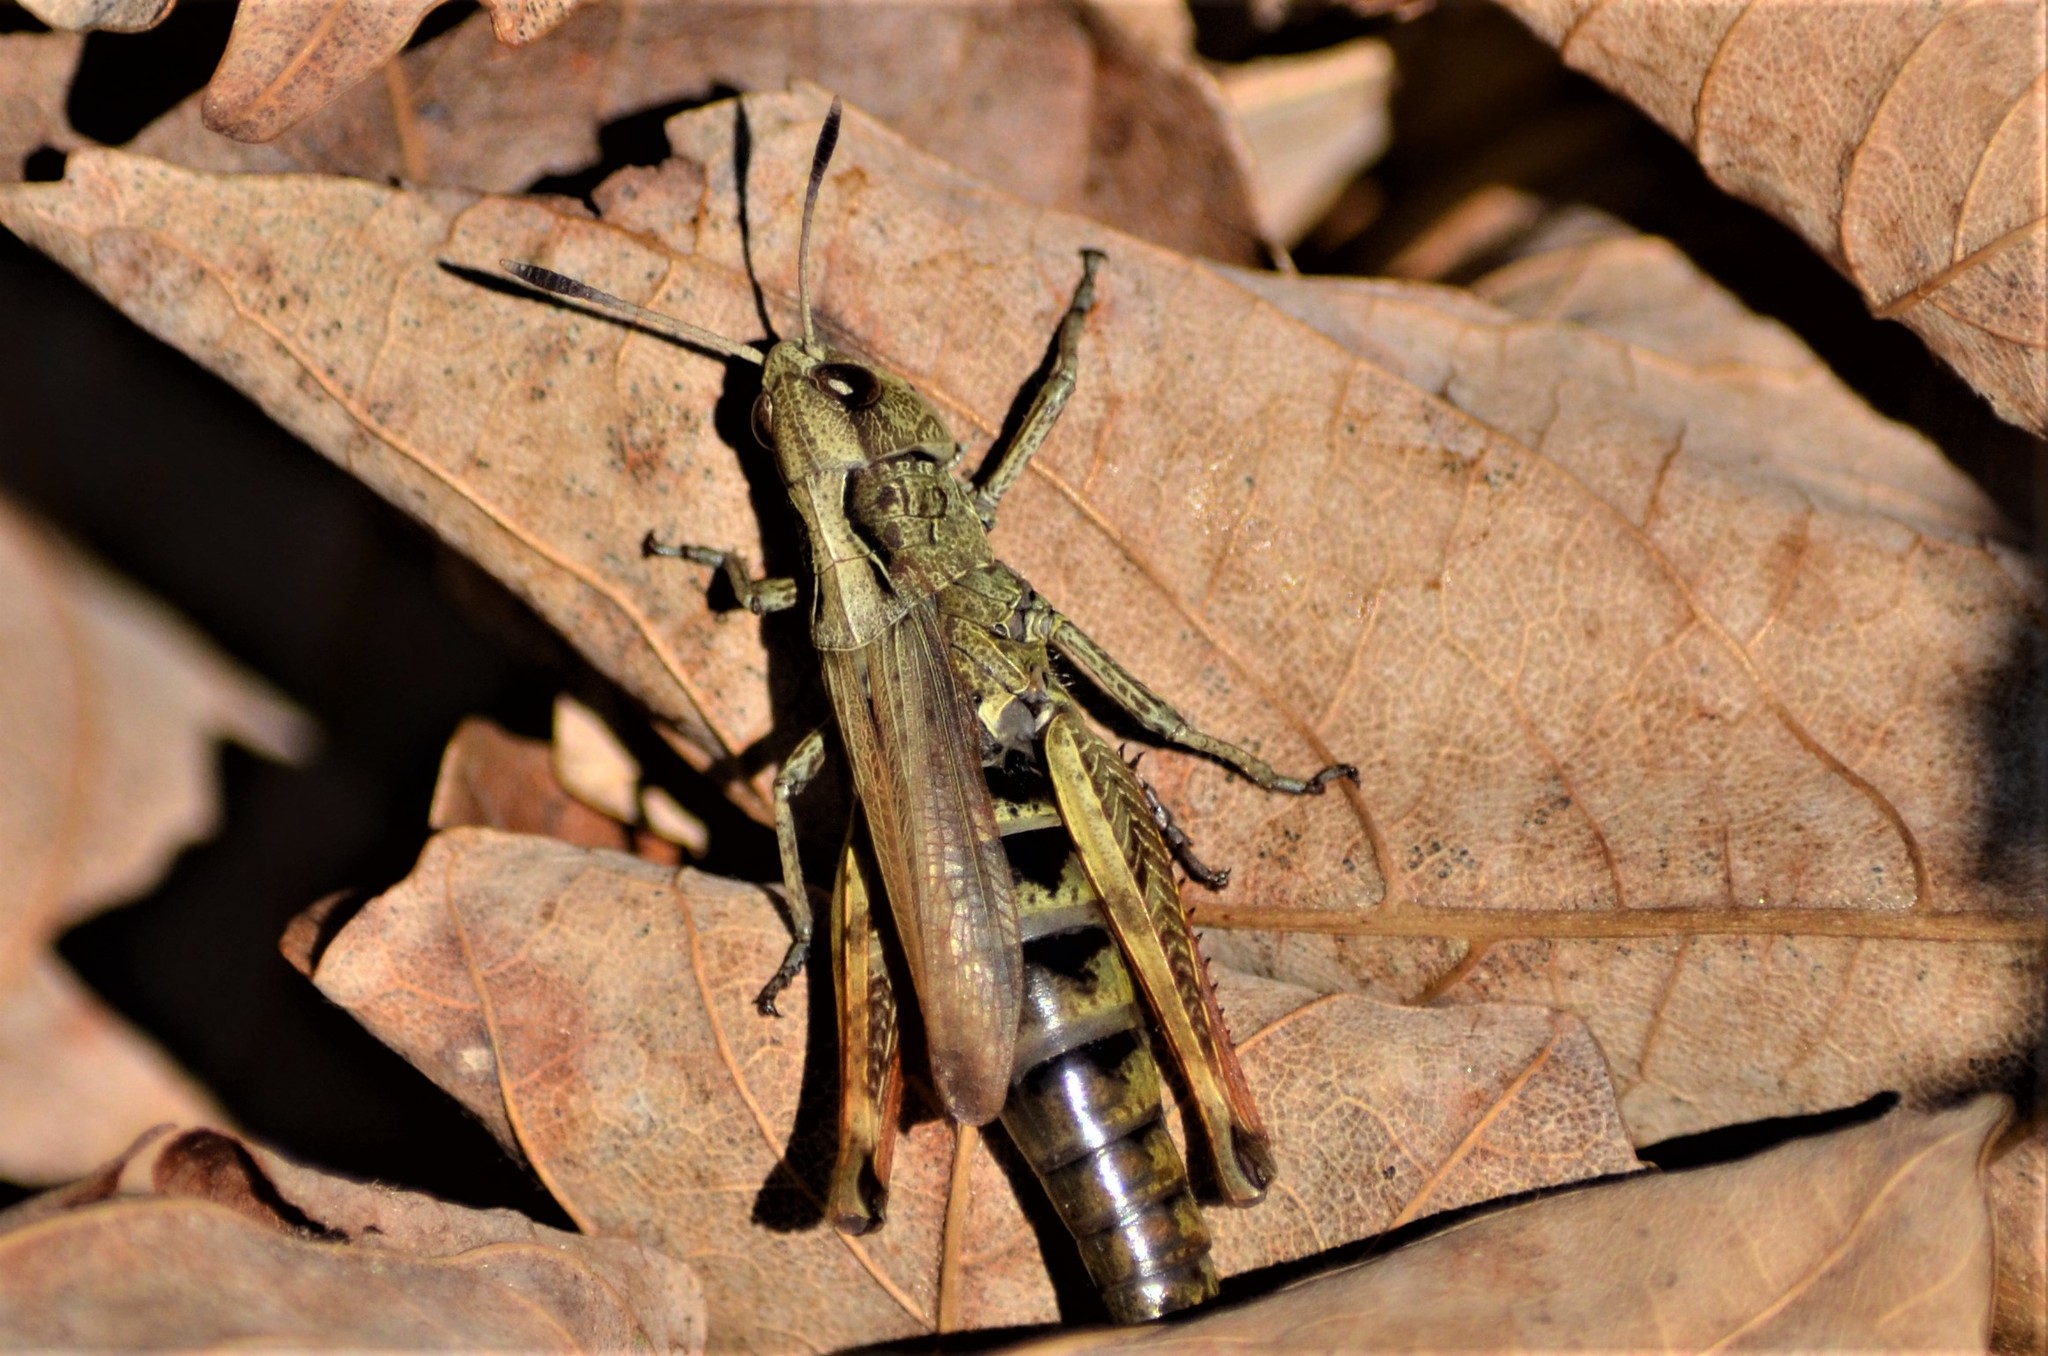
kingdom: Animalia
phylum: Arthropoda
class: Insecta
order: Orthoptera
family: Acrididae
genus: Gomphocerippus
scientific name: Gomphocerippus rufus
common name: Rufous grasshopper
